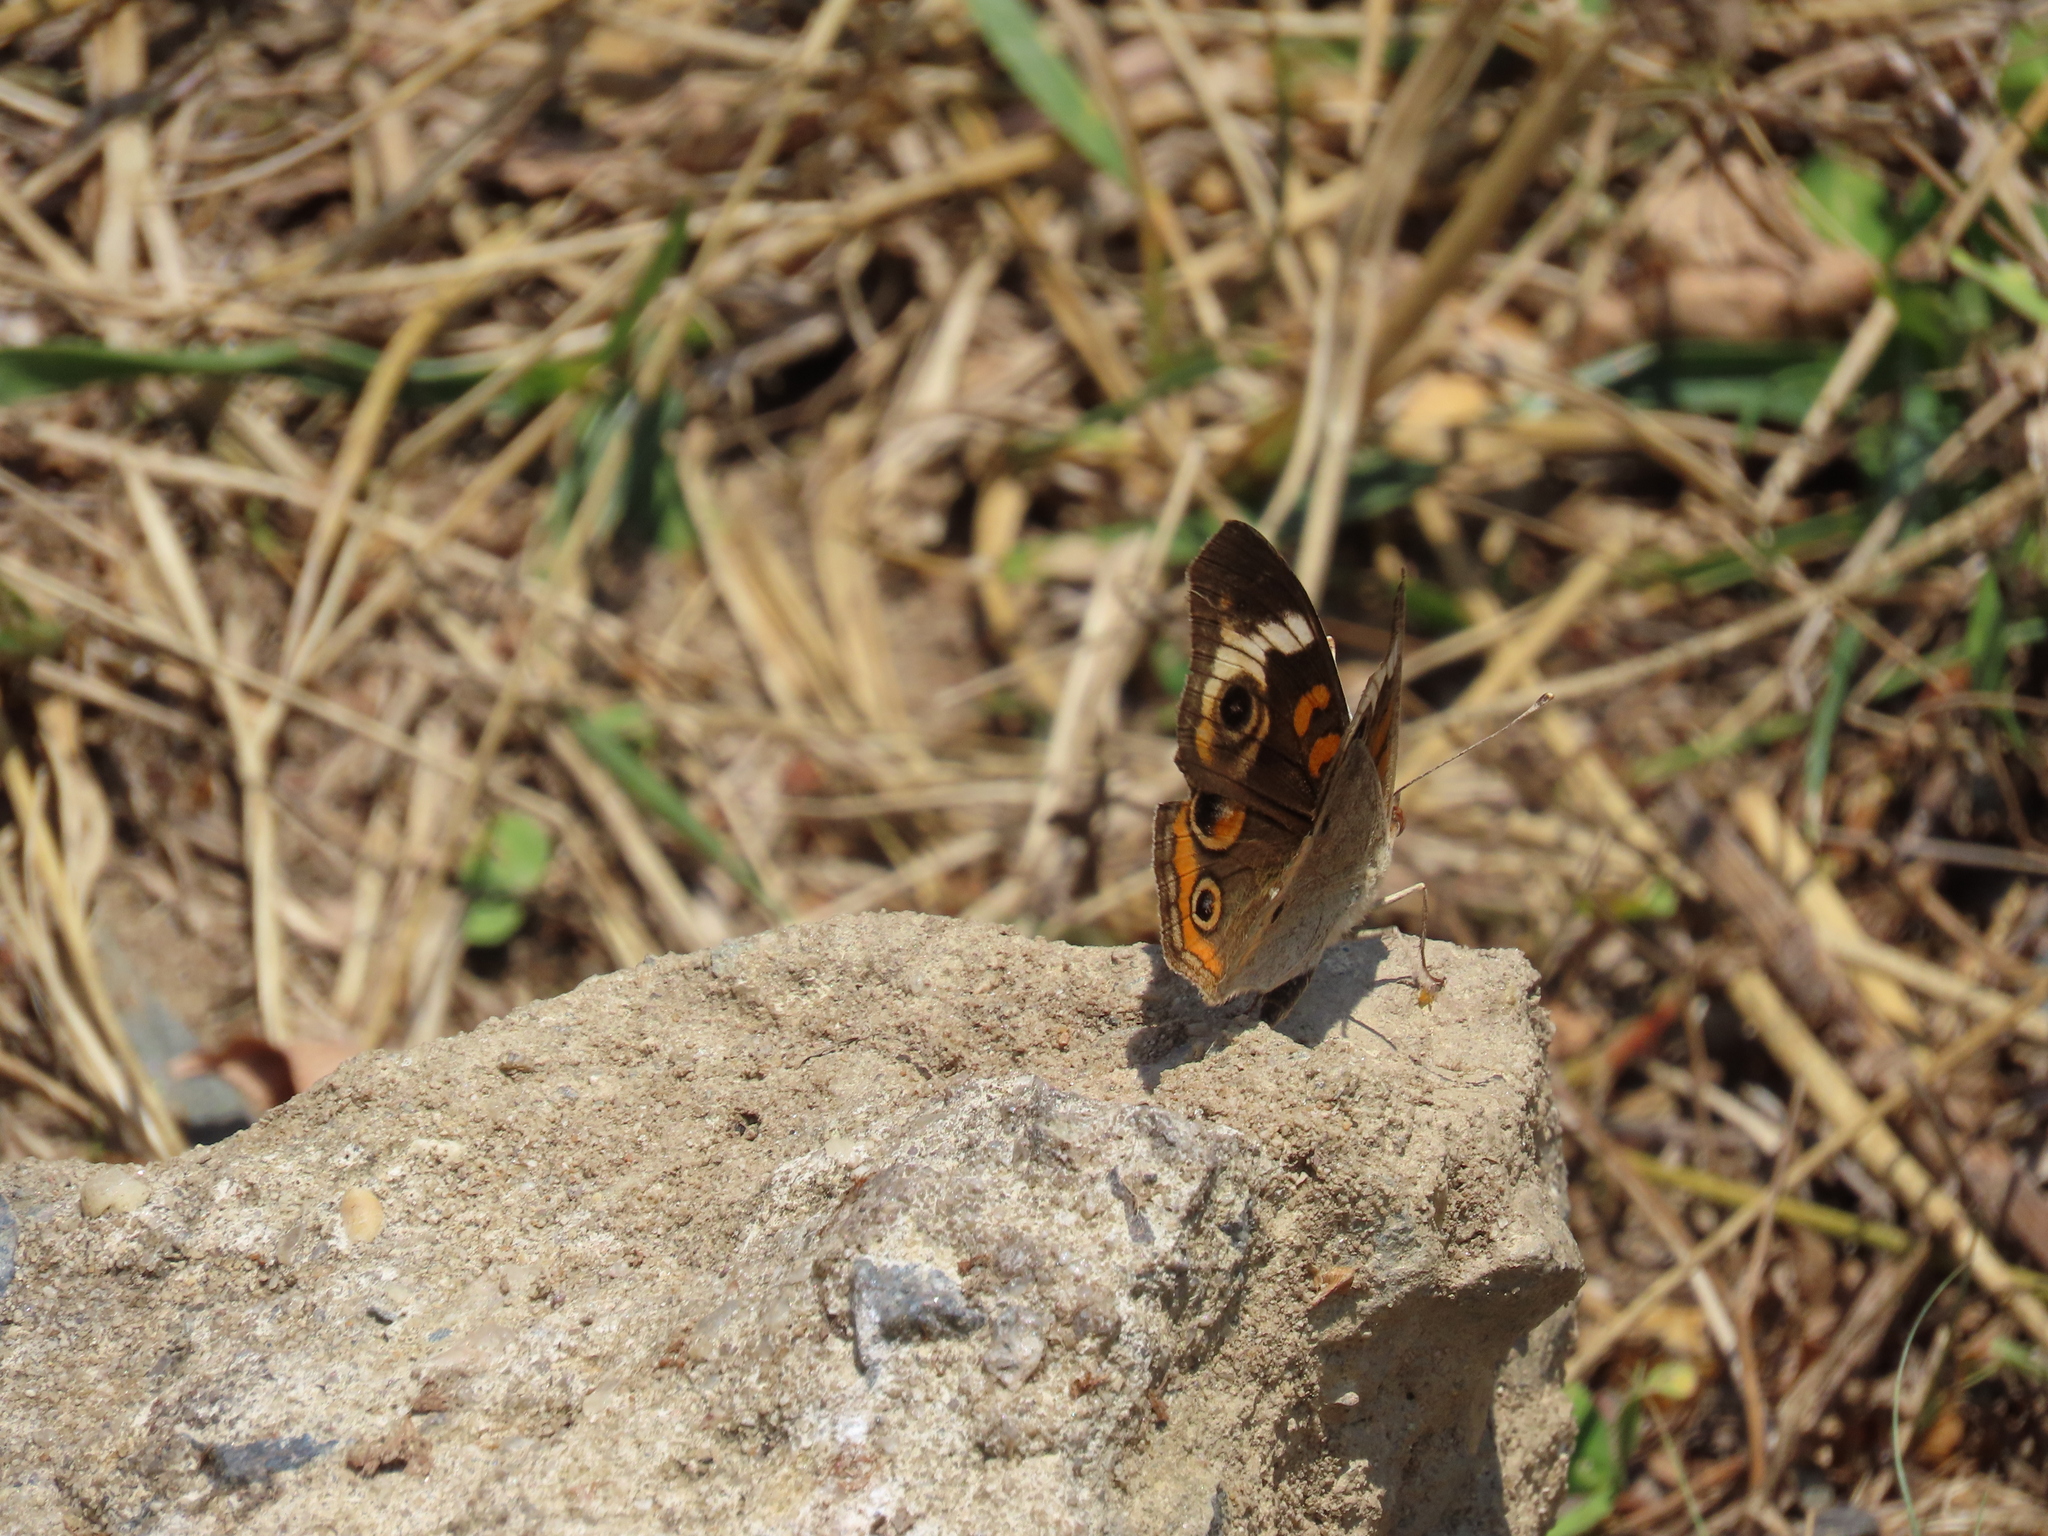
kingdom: Animalia
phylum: Arthropoda
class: Insecta
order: Lepidoptera
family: Nymphalidae
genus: Junonia
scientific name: Junonia coenia
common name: Common buckeye
